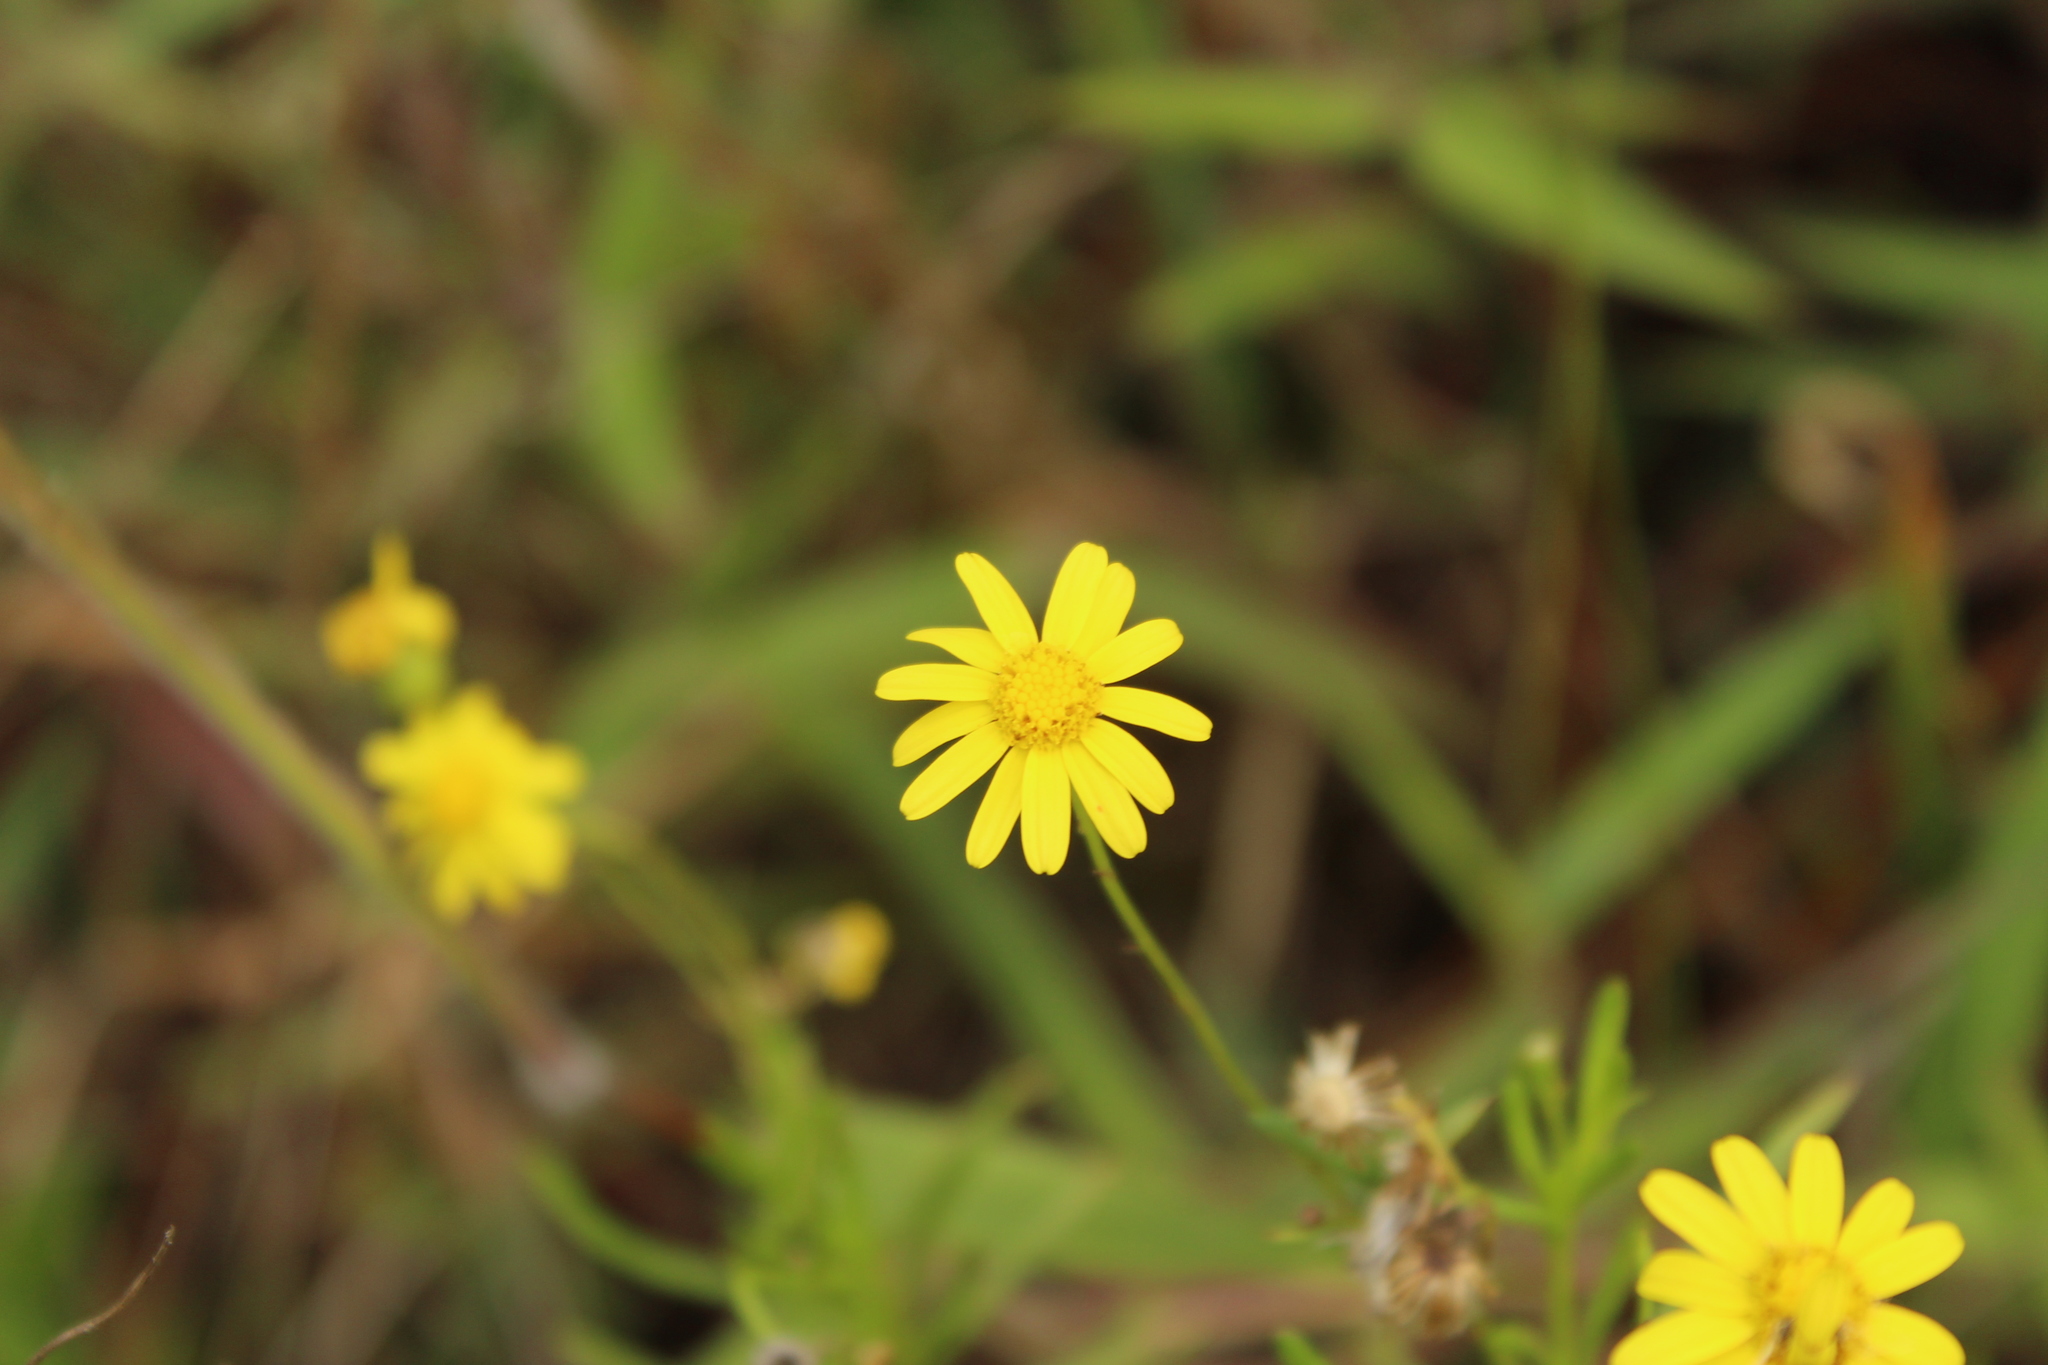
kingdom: Plantae
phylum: Tracheophyta
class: Magnoliopsida
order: Asterales
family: Asteraceae
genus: Senecio
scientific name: Senecio madagascariensis
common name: Madagascar ragwort
